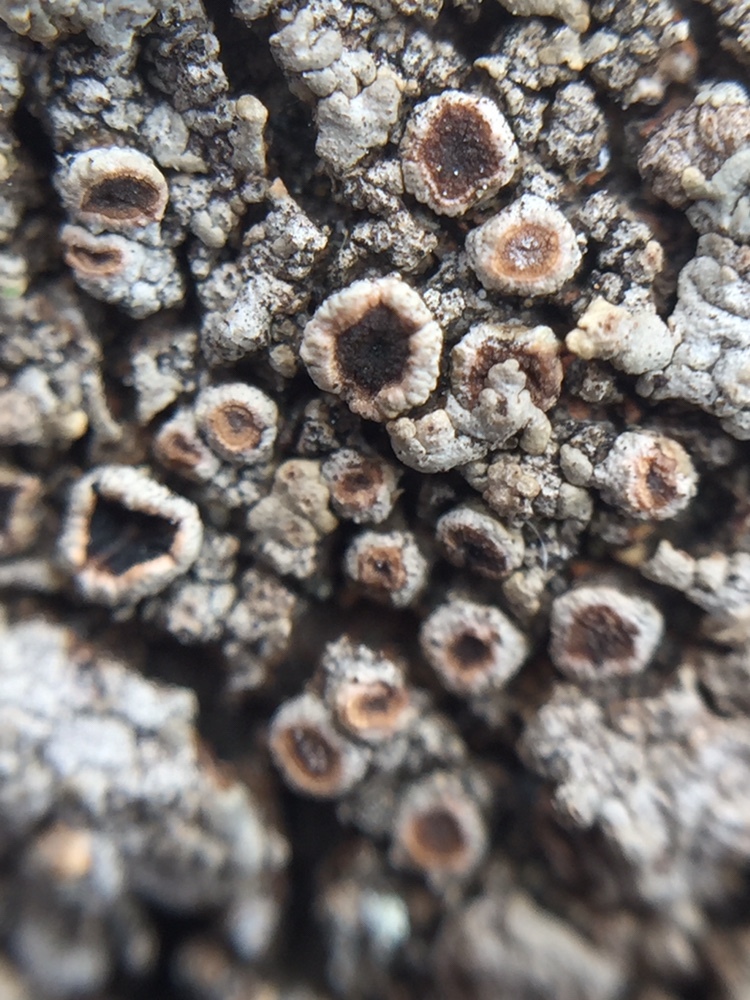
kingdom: Fungi
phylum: Ascomycota
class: Lecanoromycetes
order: Baeomycetales
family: Trapeliaceae
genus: Placopsis
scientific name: Placopsis perrugosa
